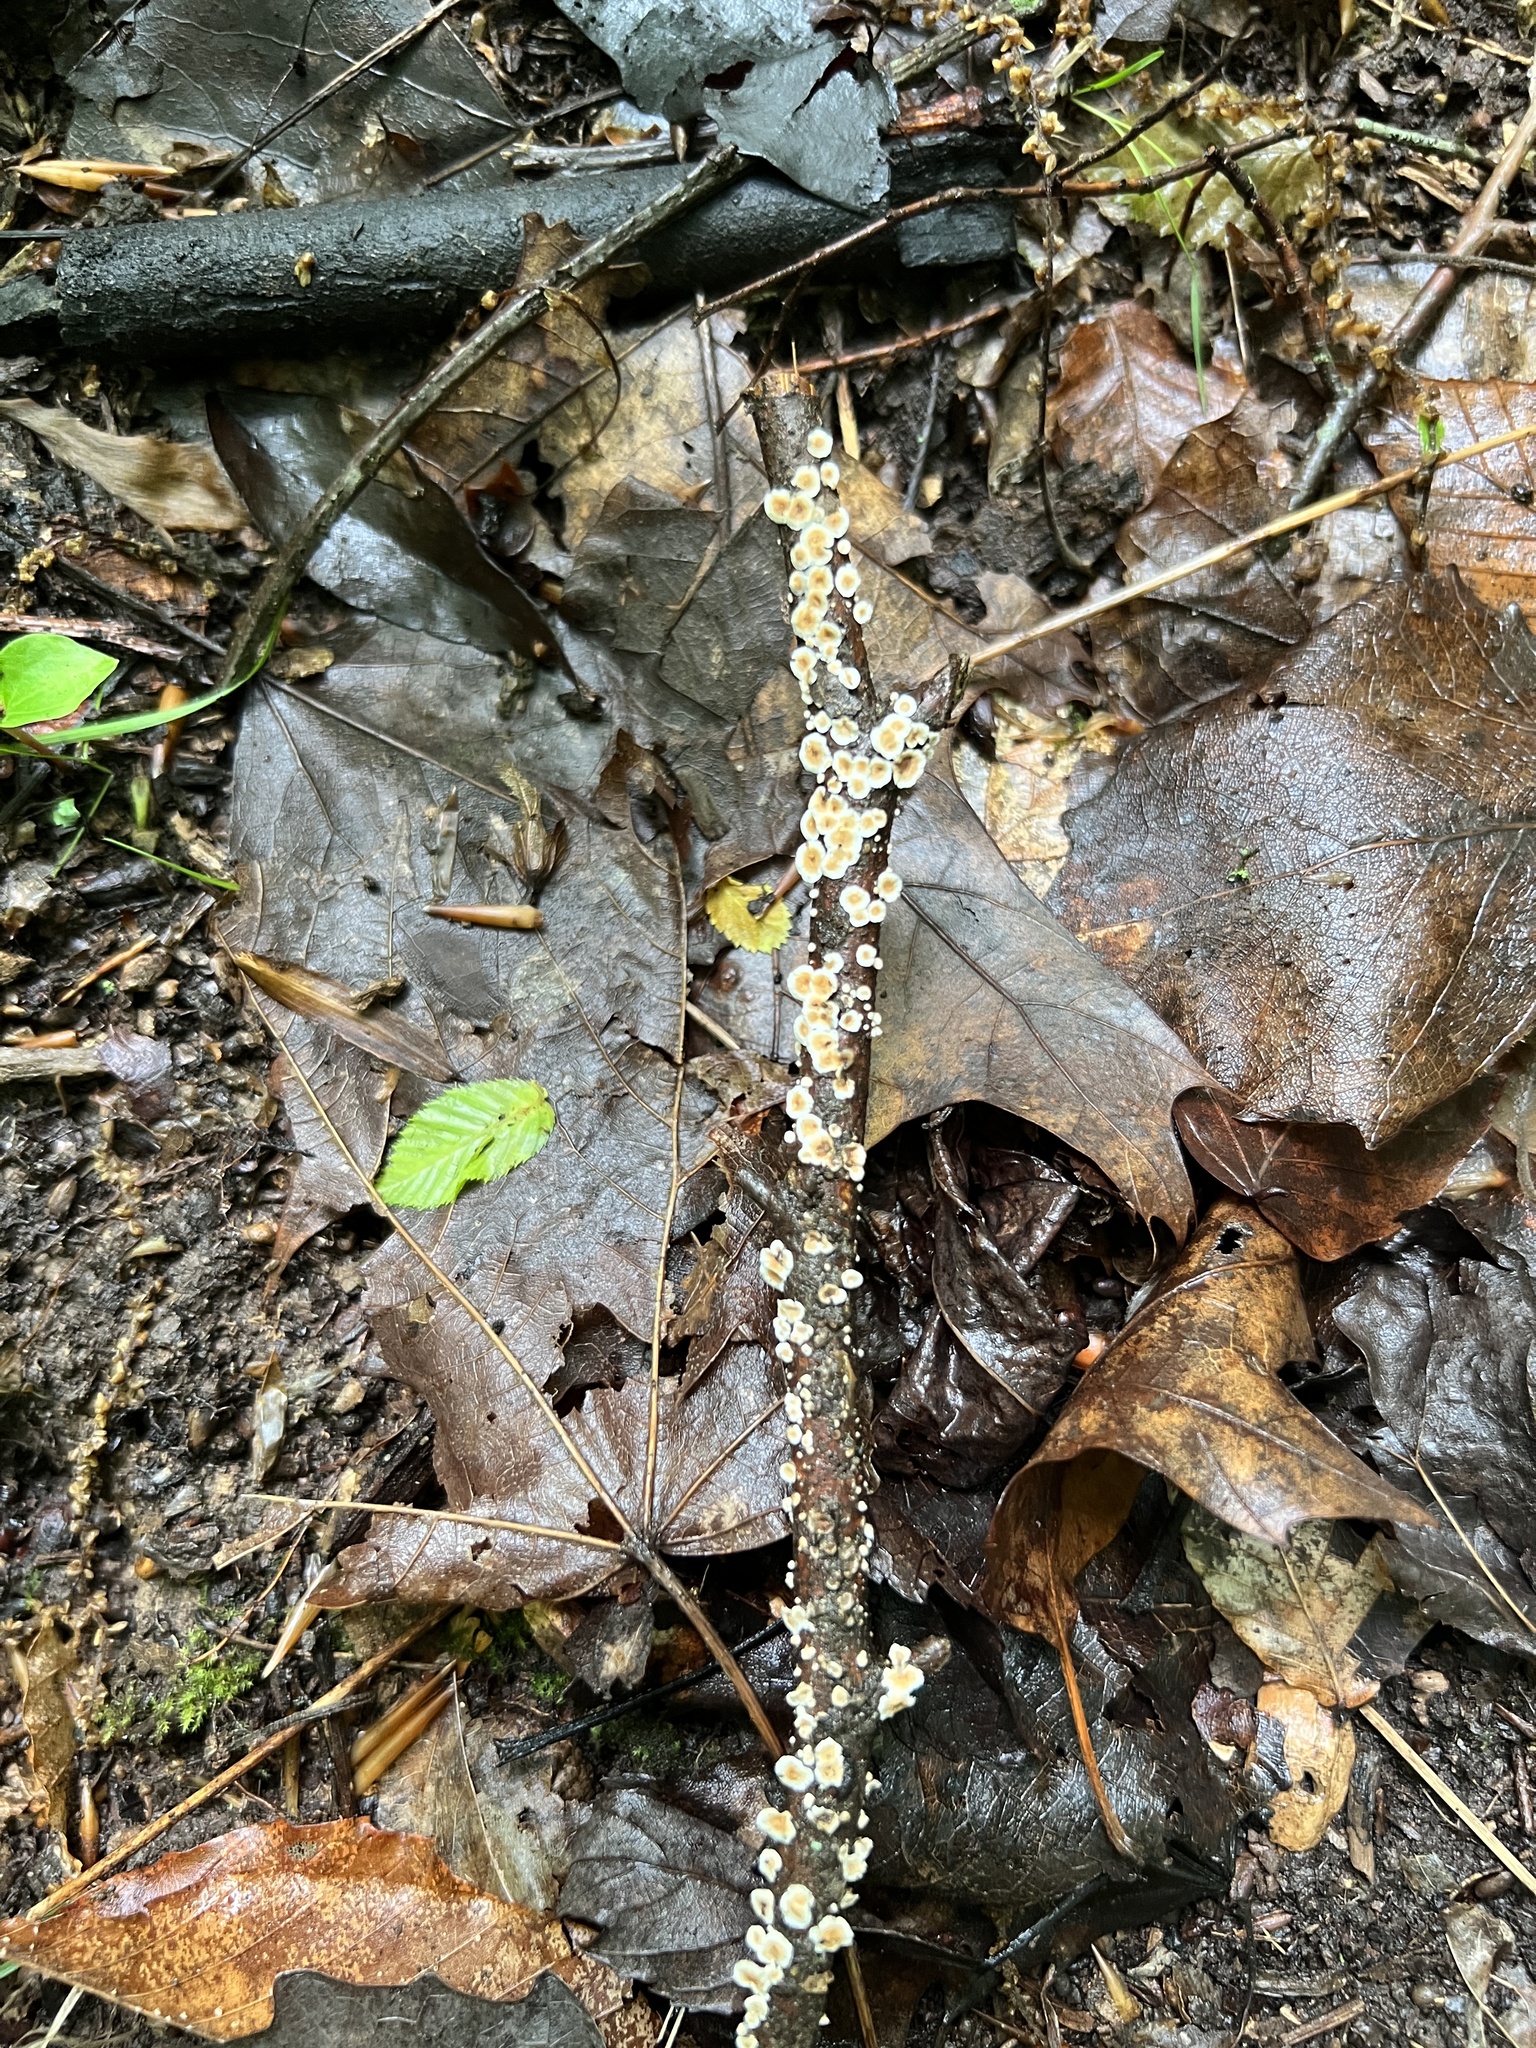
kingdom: Fungi
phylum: Basidiomycota
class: Agaricomycetes
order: Russulales
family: Stereaceae
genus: Stereum
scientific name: Stereum striatum
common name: Silky parchment
